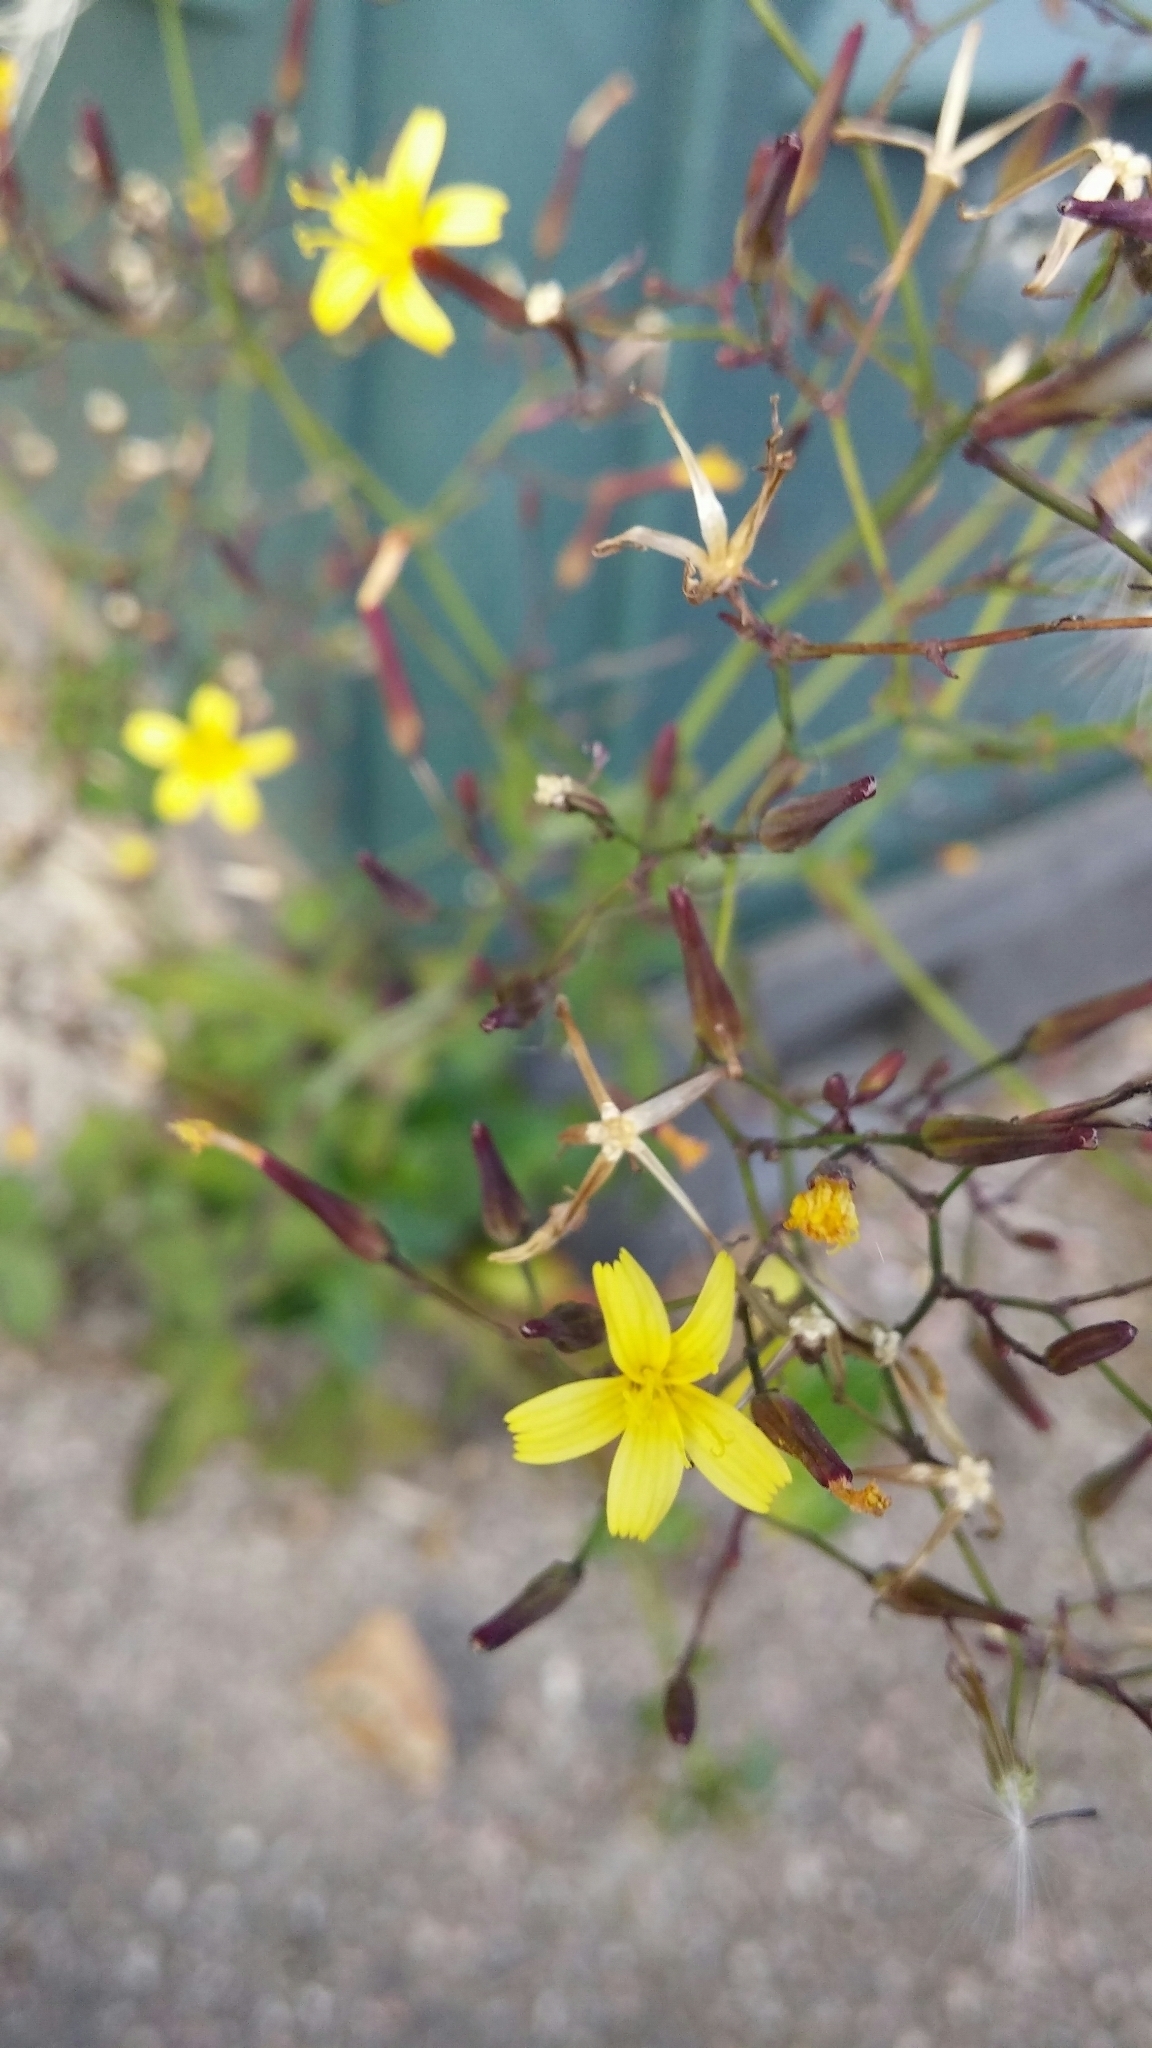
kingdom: Plantae
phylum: Tracheophyta
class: Magnoliopsida
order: Asterales
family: Asteraceae
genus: Mycelis
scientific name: Mycelis muralis
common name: Wall lettuce
